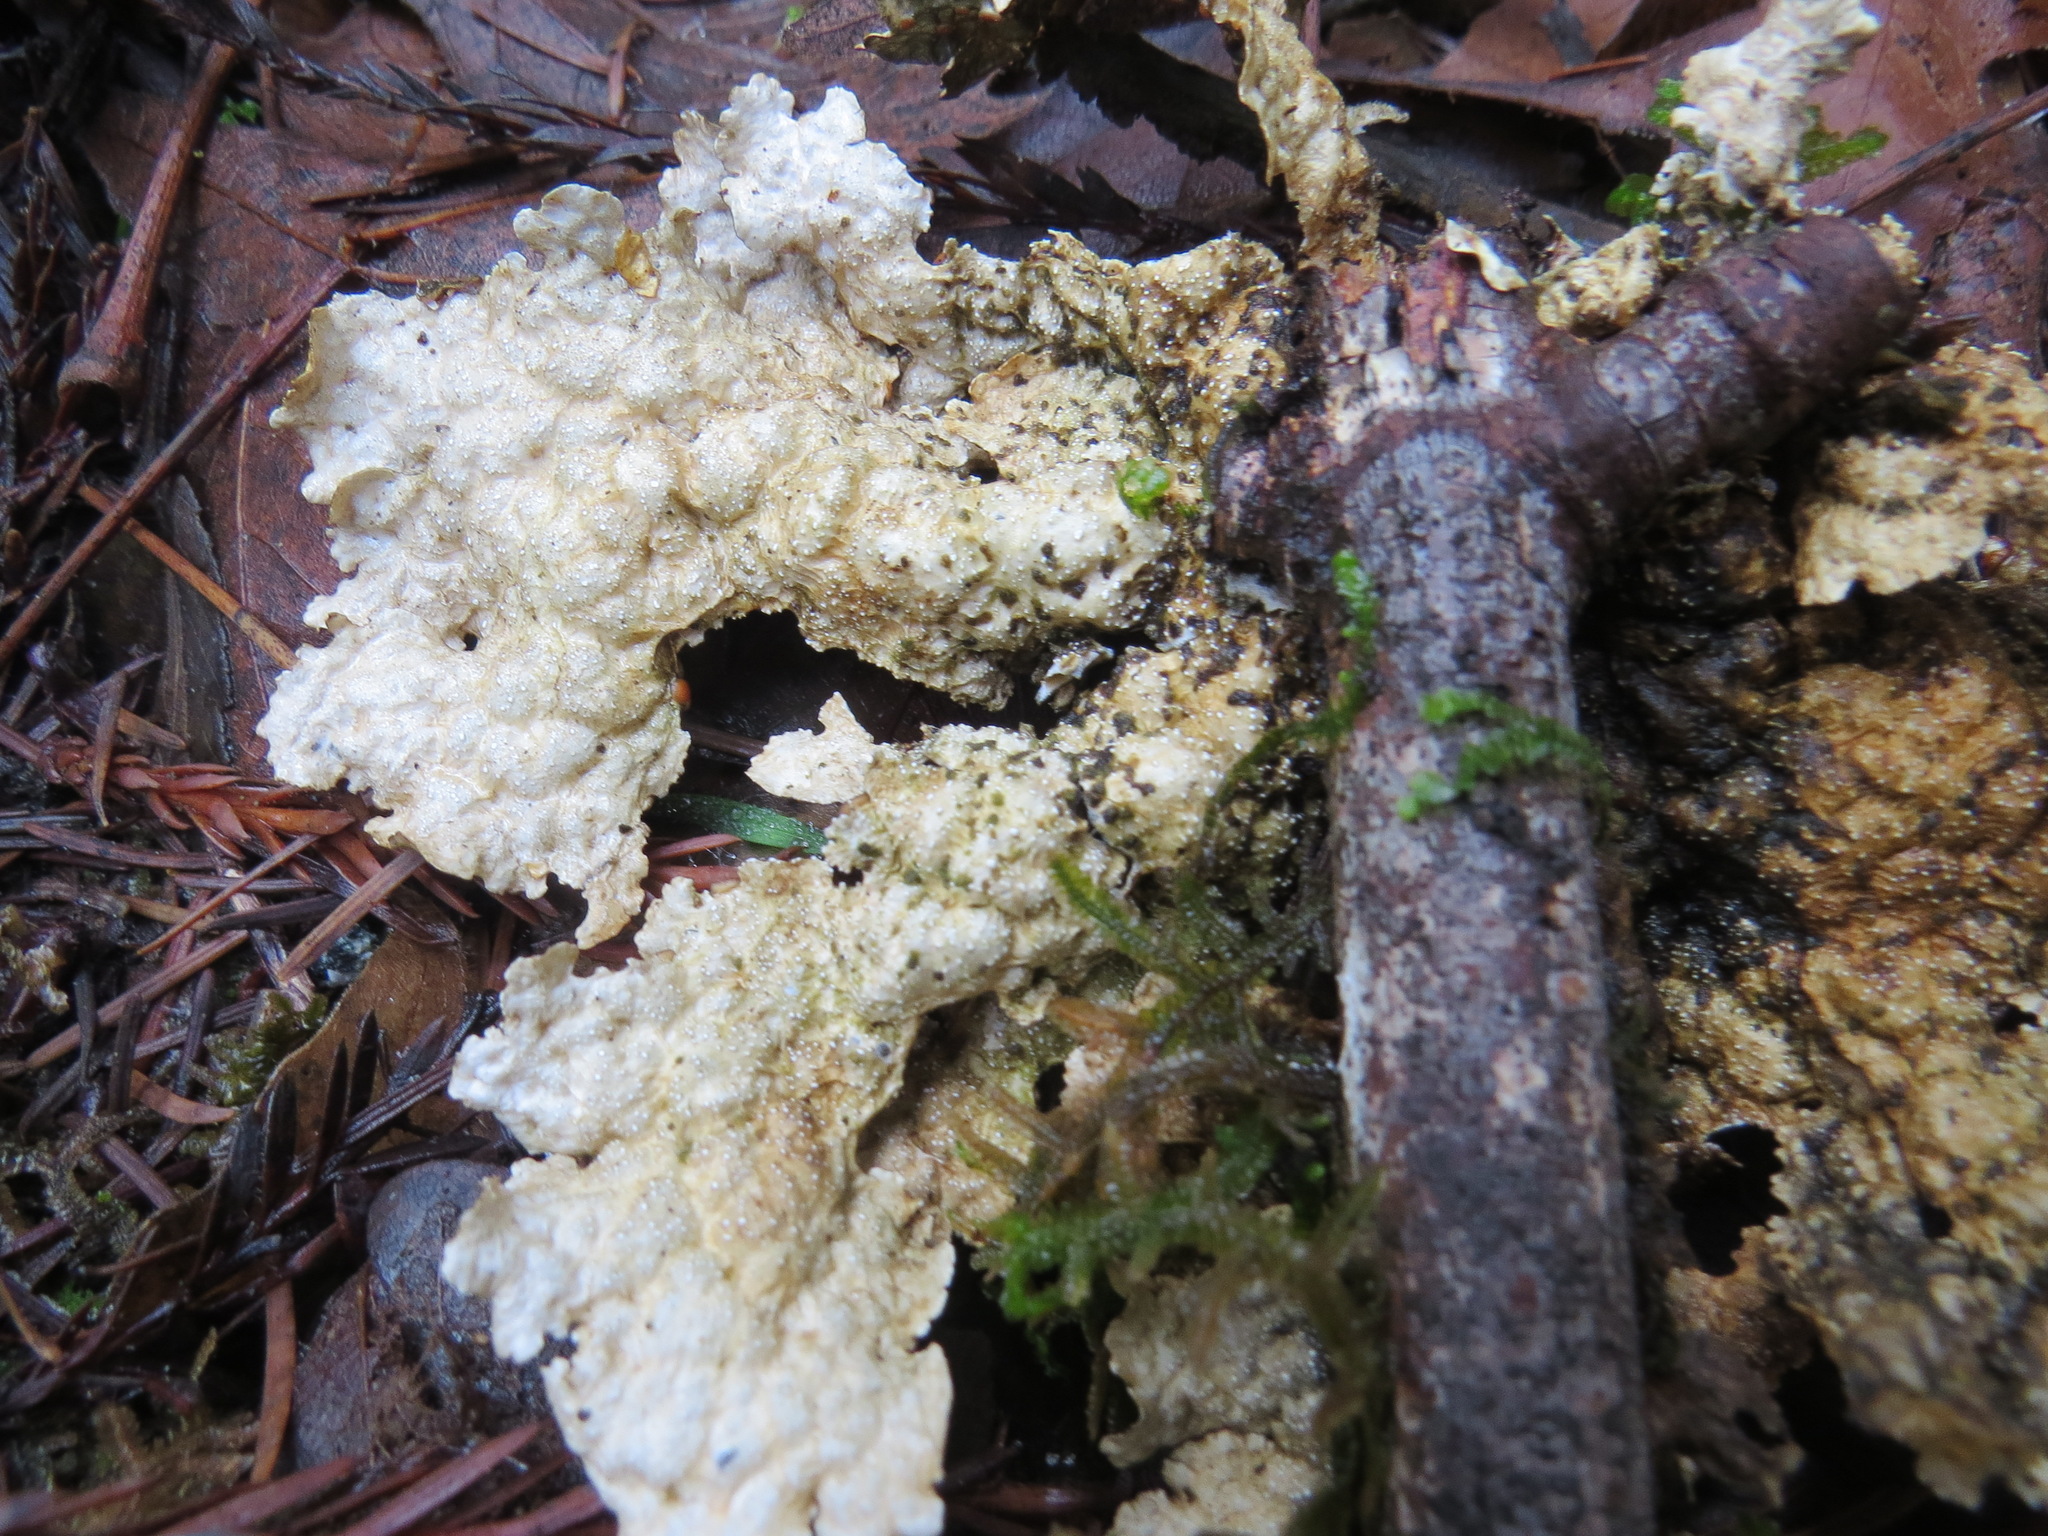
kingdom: Fungi
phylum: Ascomycota
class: Lecanoromycetes
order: Peltigerales
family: Lobariaceae
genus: Lobaria
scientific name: Lobaria anthraspis
